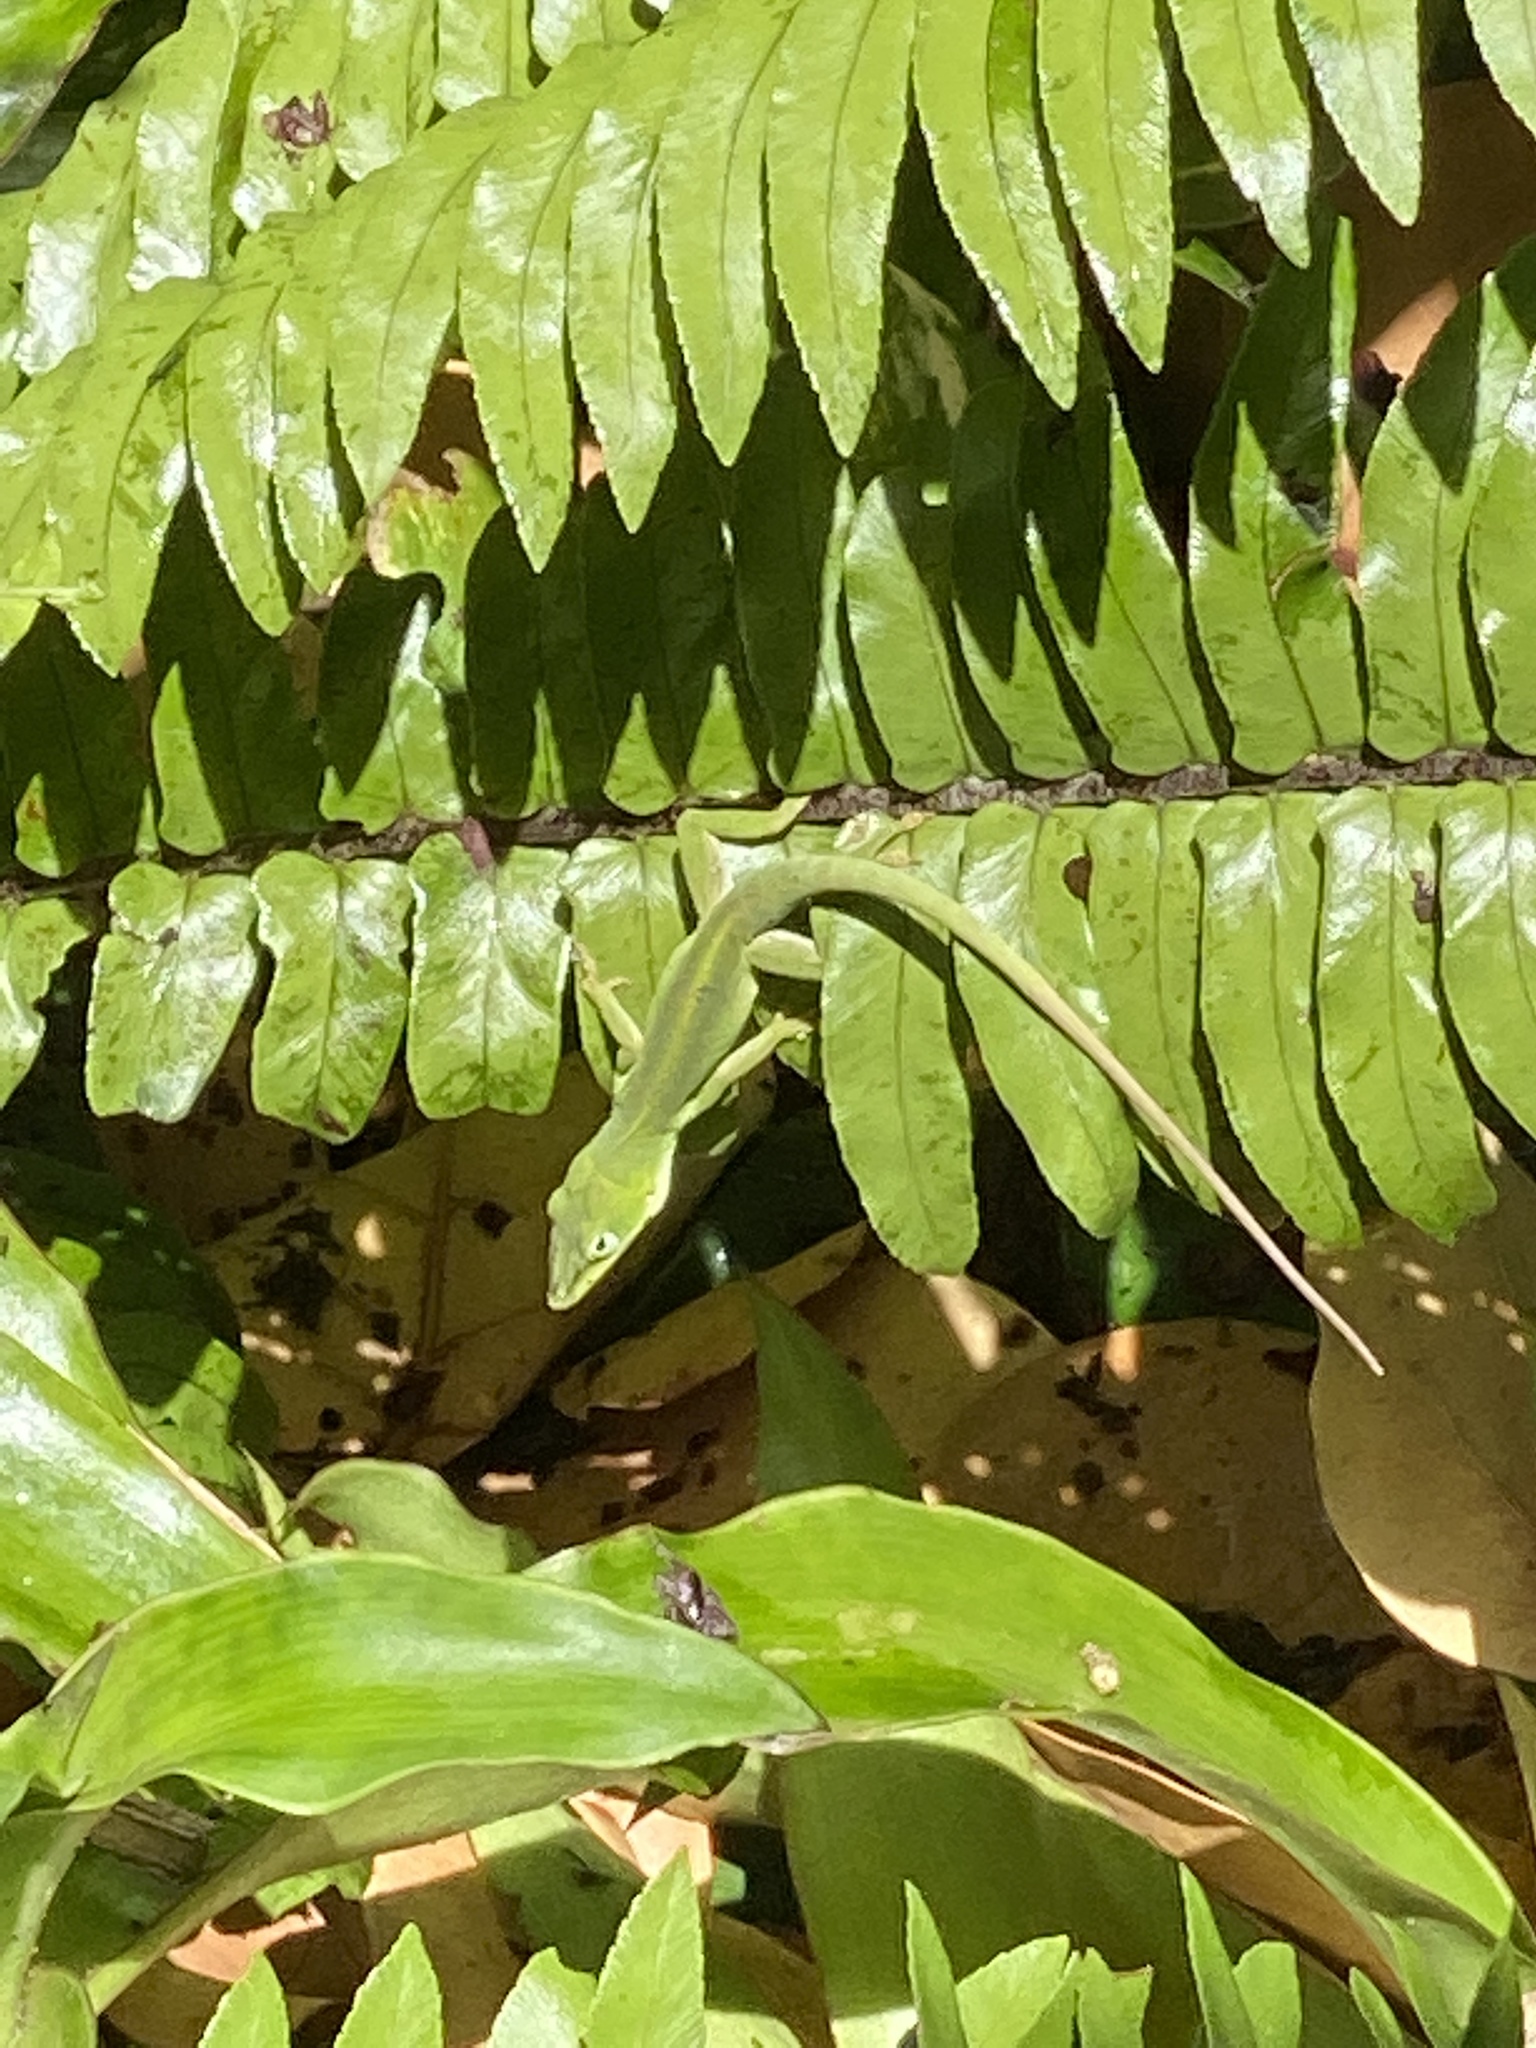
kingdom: Animalia
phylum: Chordata
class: Squamata
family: Dactyloidae
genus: Anolis
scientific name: Anolis carolinensis
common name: Green anole
